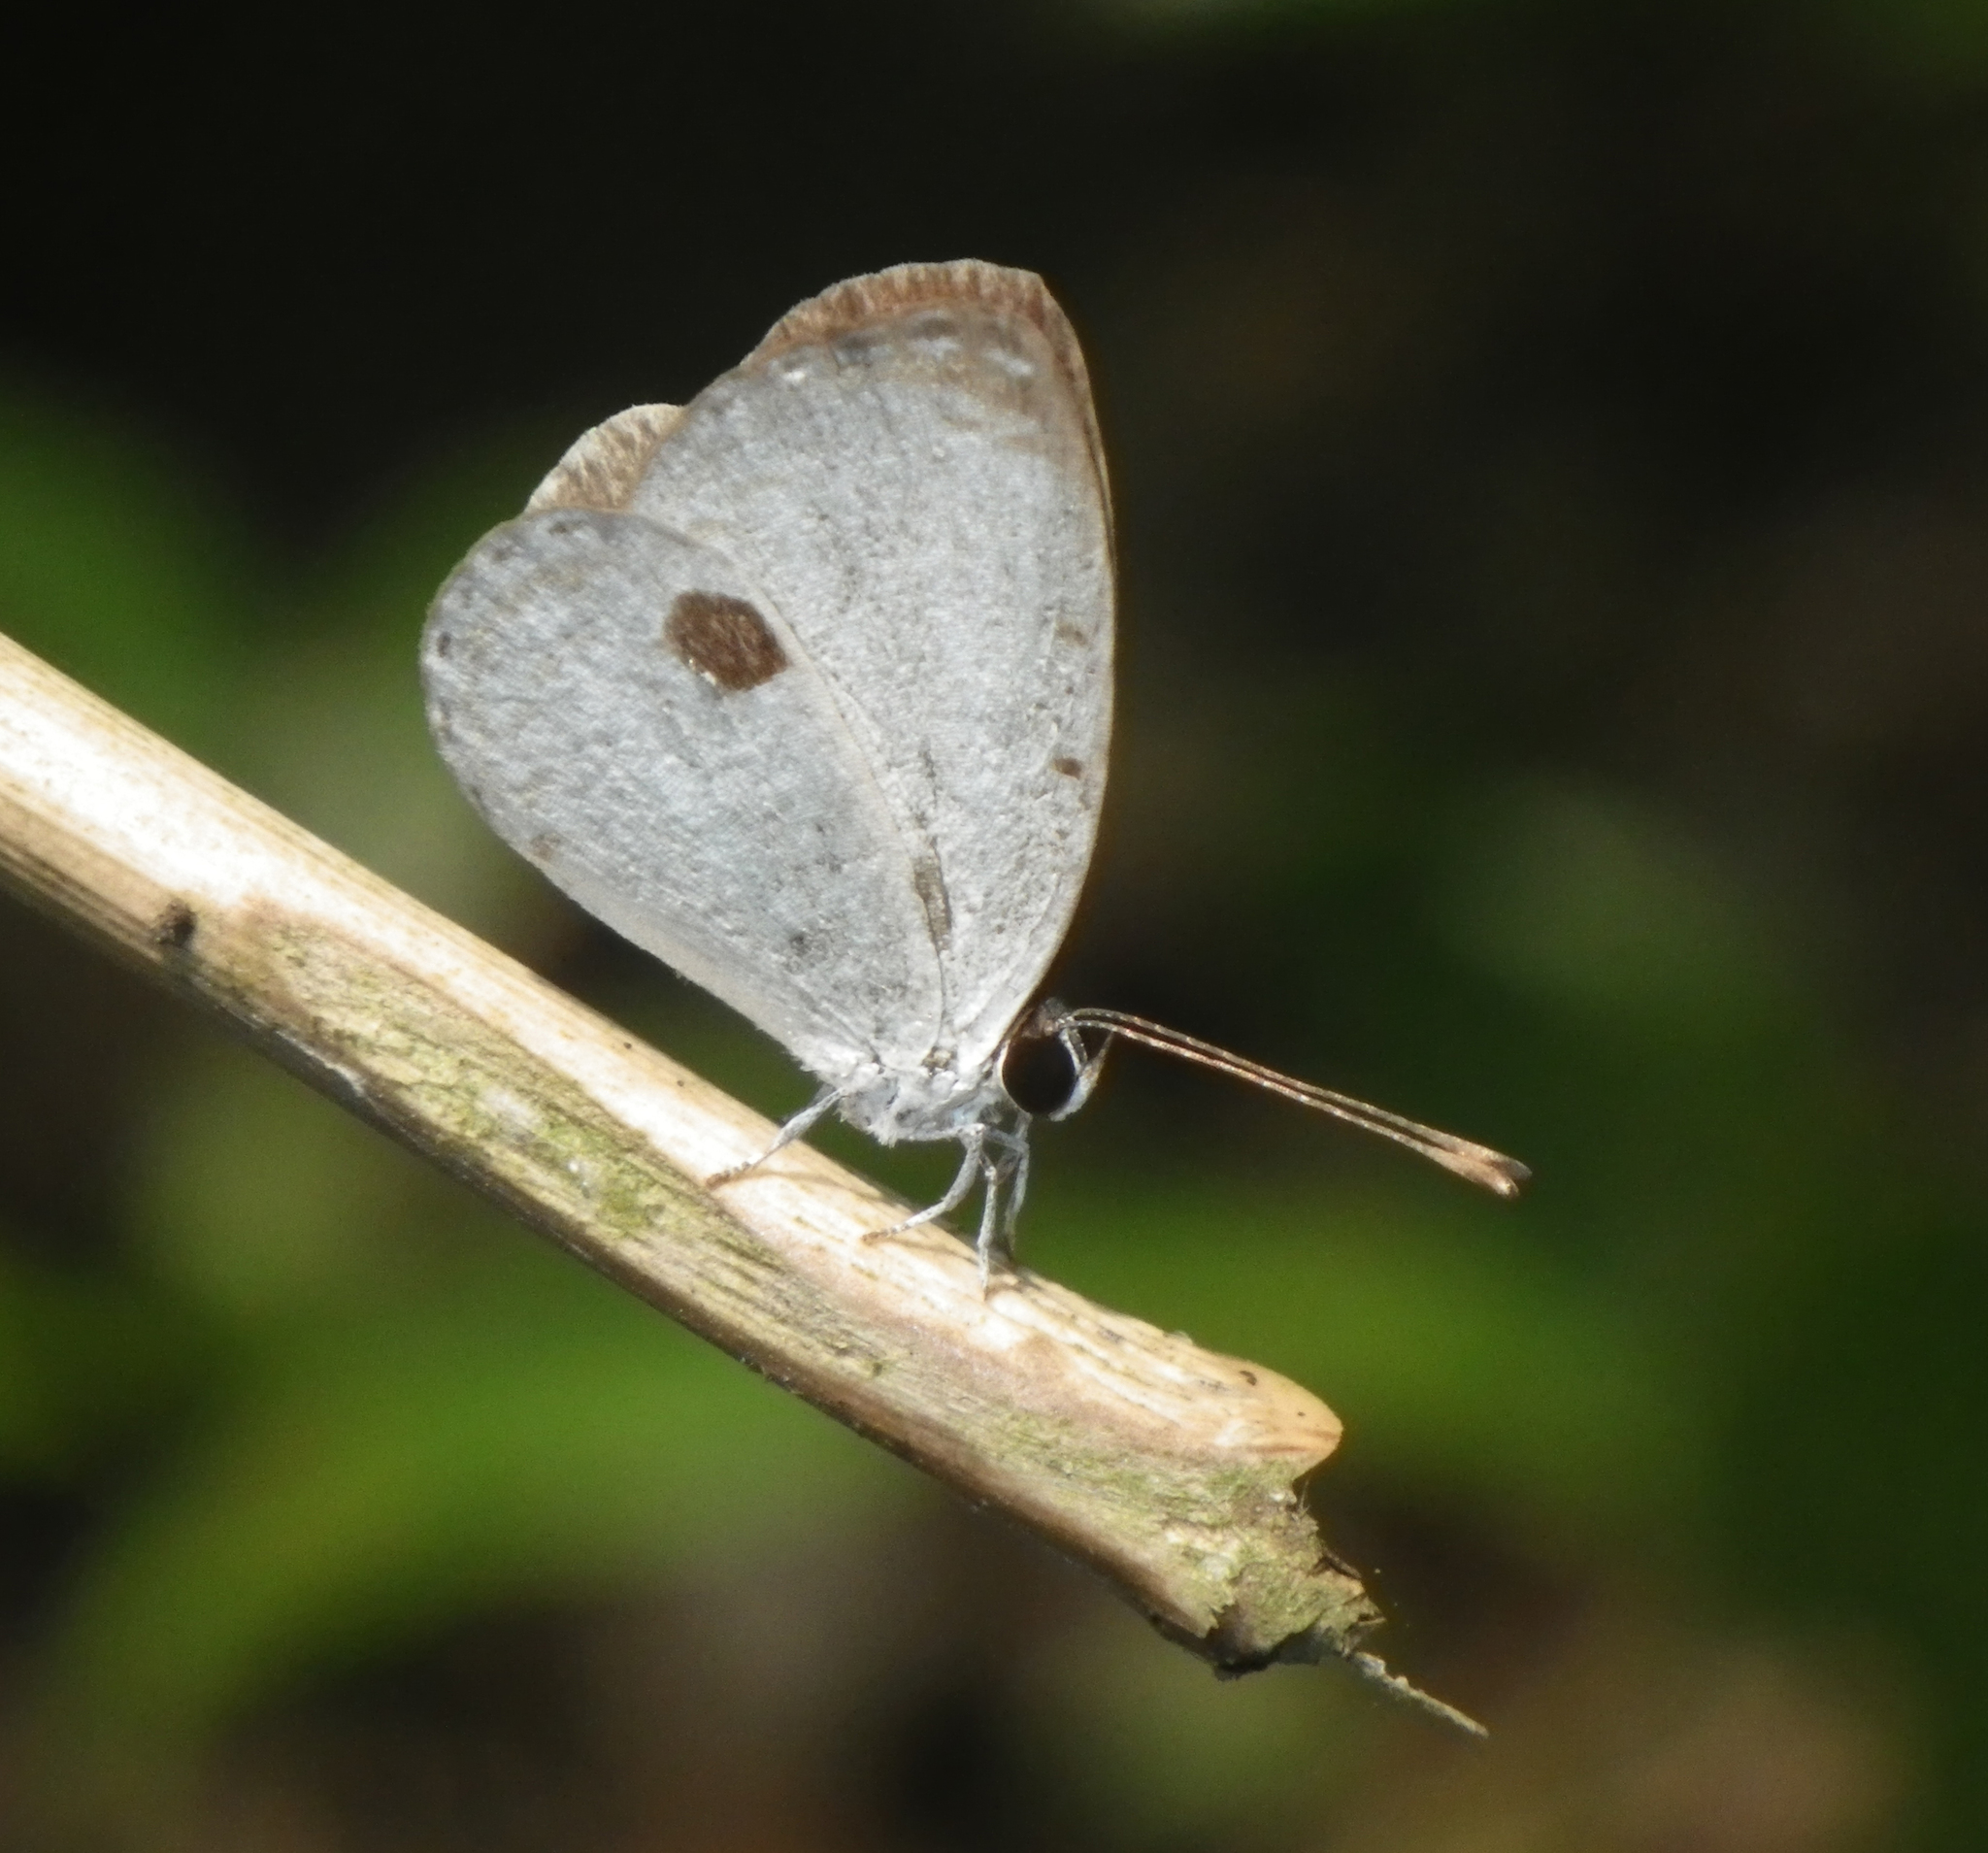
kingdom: Animalia
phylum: Arthropoda
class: Insecta
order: Lepidoptera
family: Lycaenidae
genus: Pithecops
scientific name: Pithecops corvus
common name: Forest quaker
